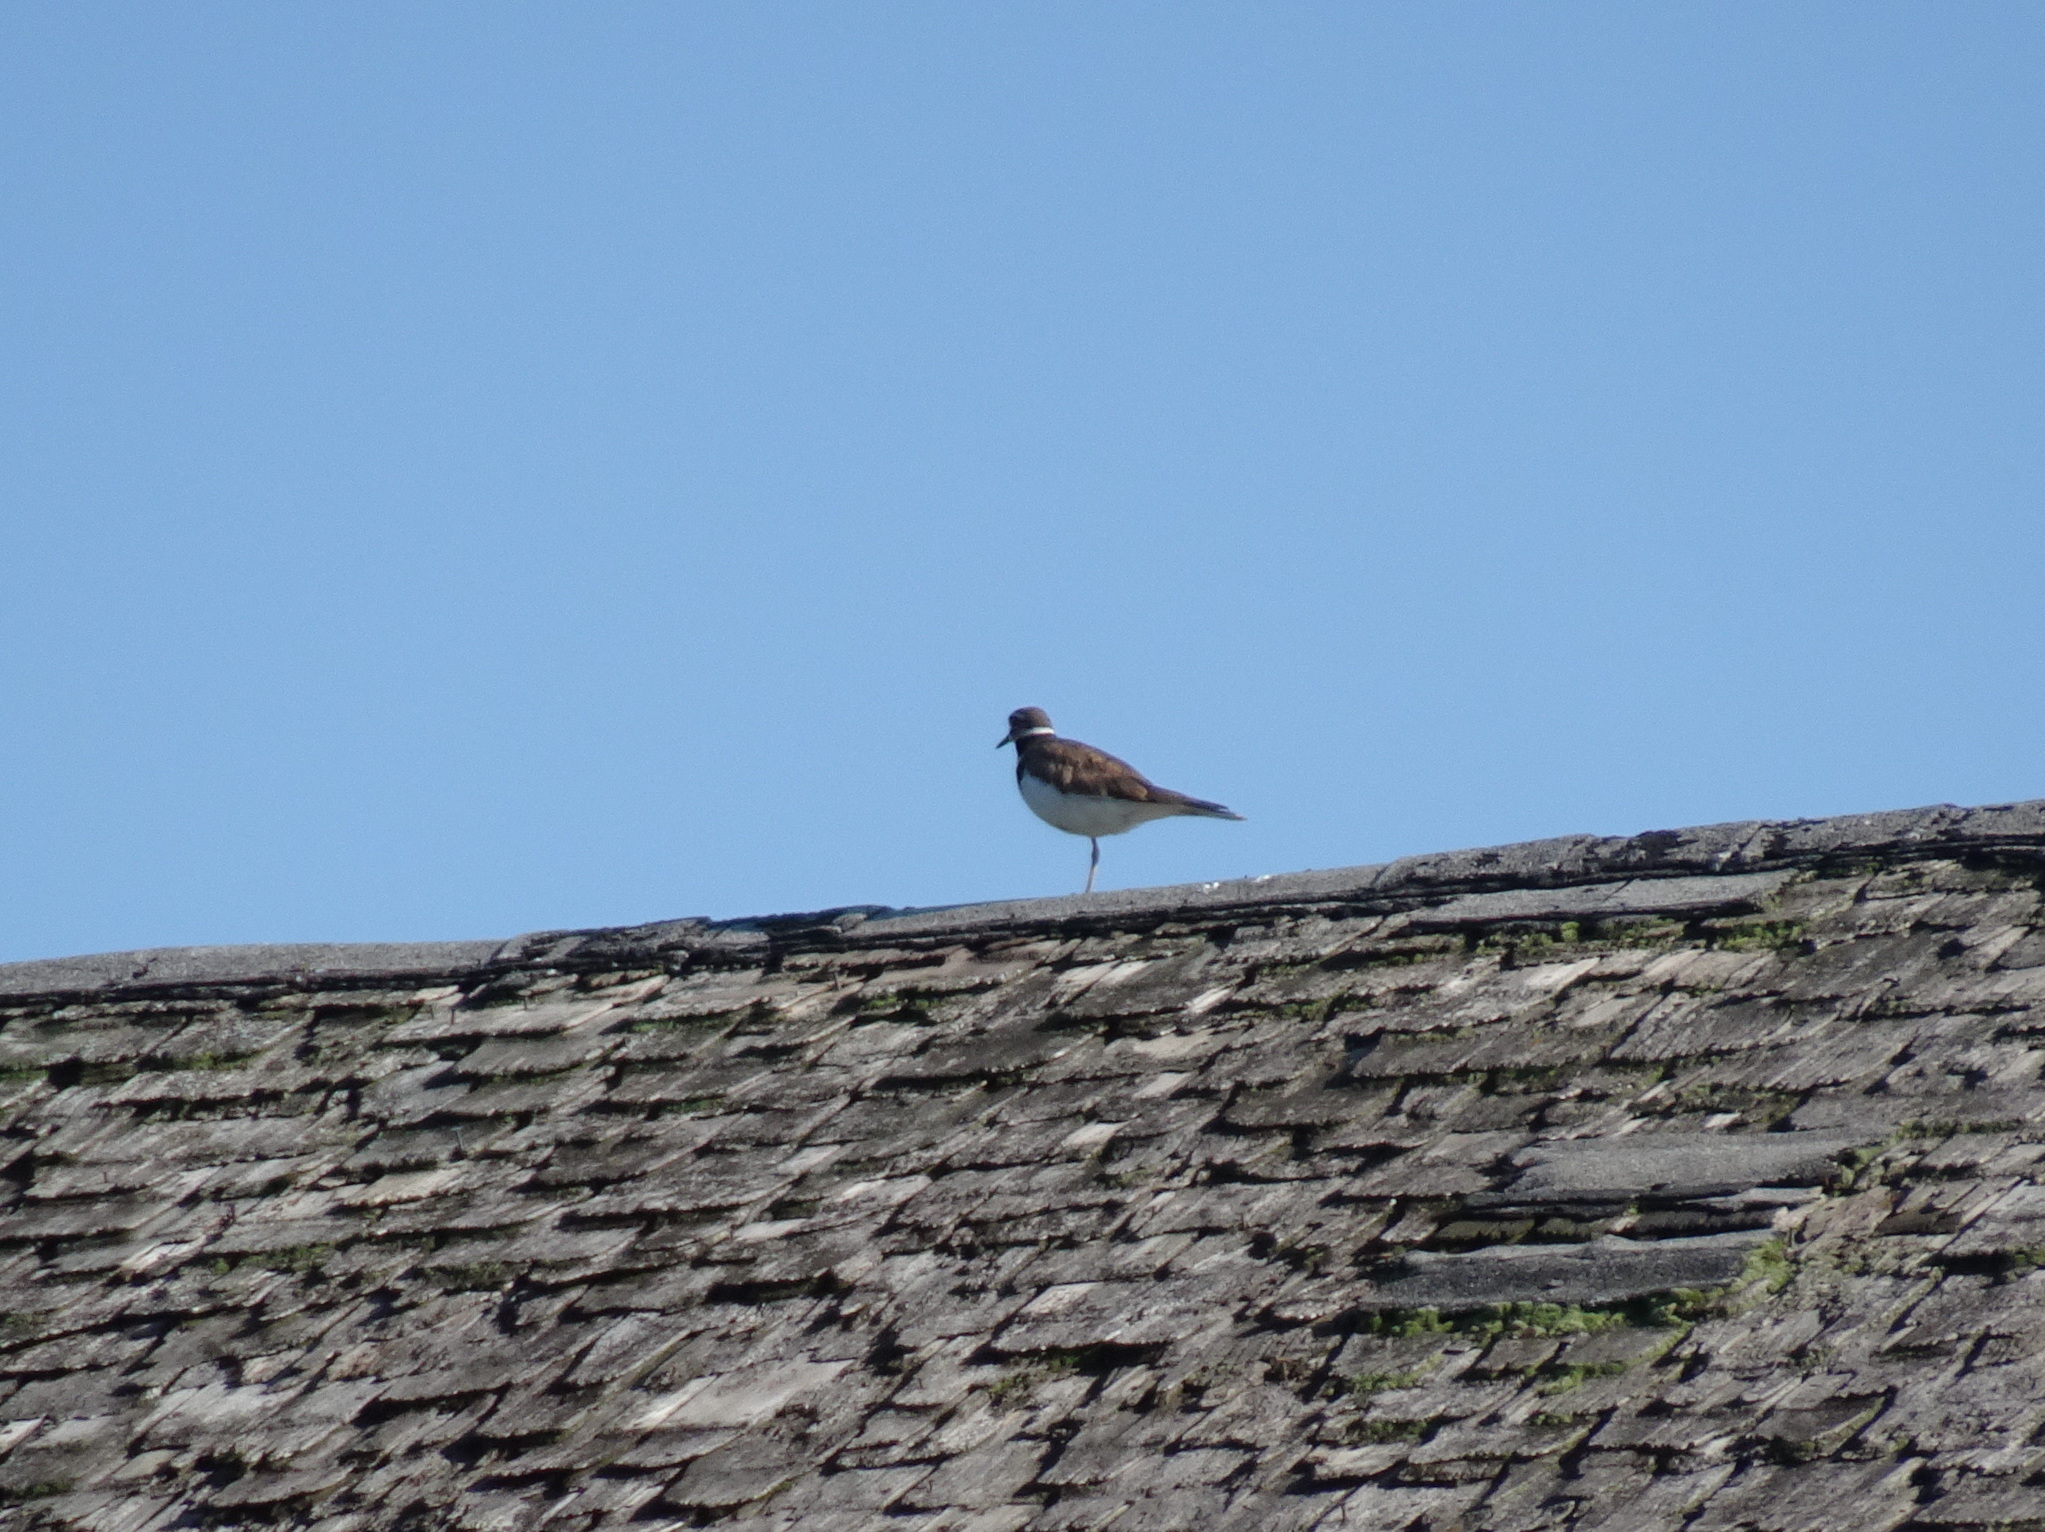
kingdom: Animalia
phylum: Chordata
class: Aves
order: Charadriiformes
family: Charadriidae
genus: Charadrius
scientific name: Charadrius vociferus
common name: Killdeer
